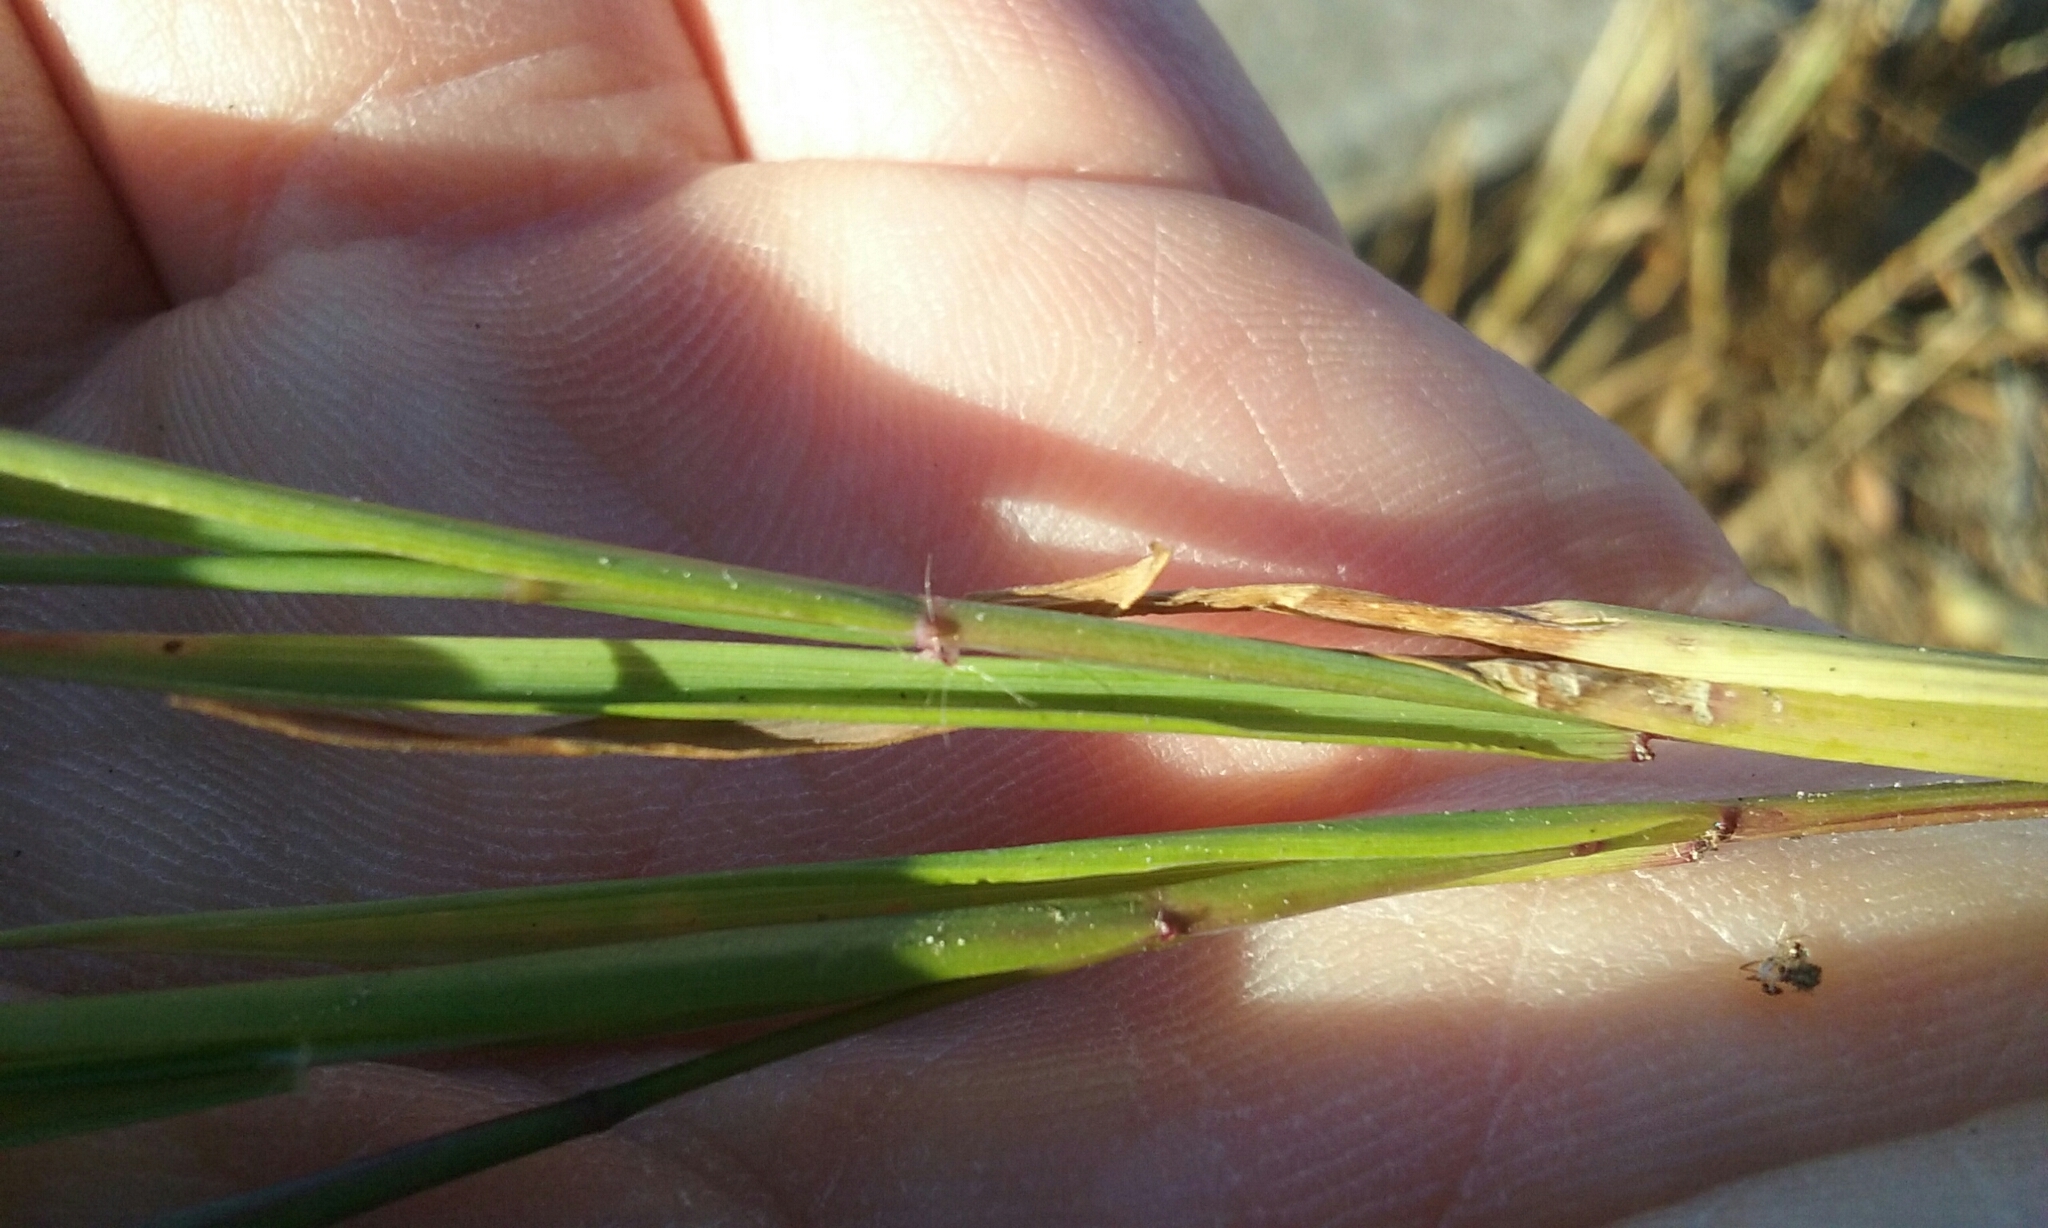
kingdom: Plantae
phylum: Tracheophyta
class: Liliopsida
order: Poales
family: Poaceae
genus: Ehrharta
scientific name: Ehrharta erecta
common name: Panic veldtgrass
